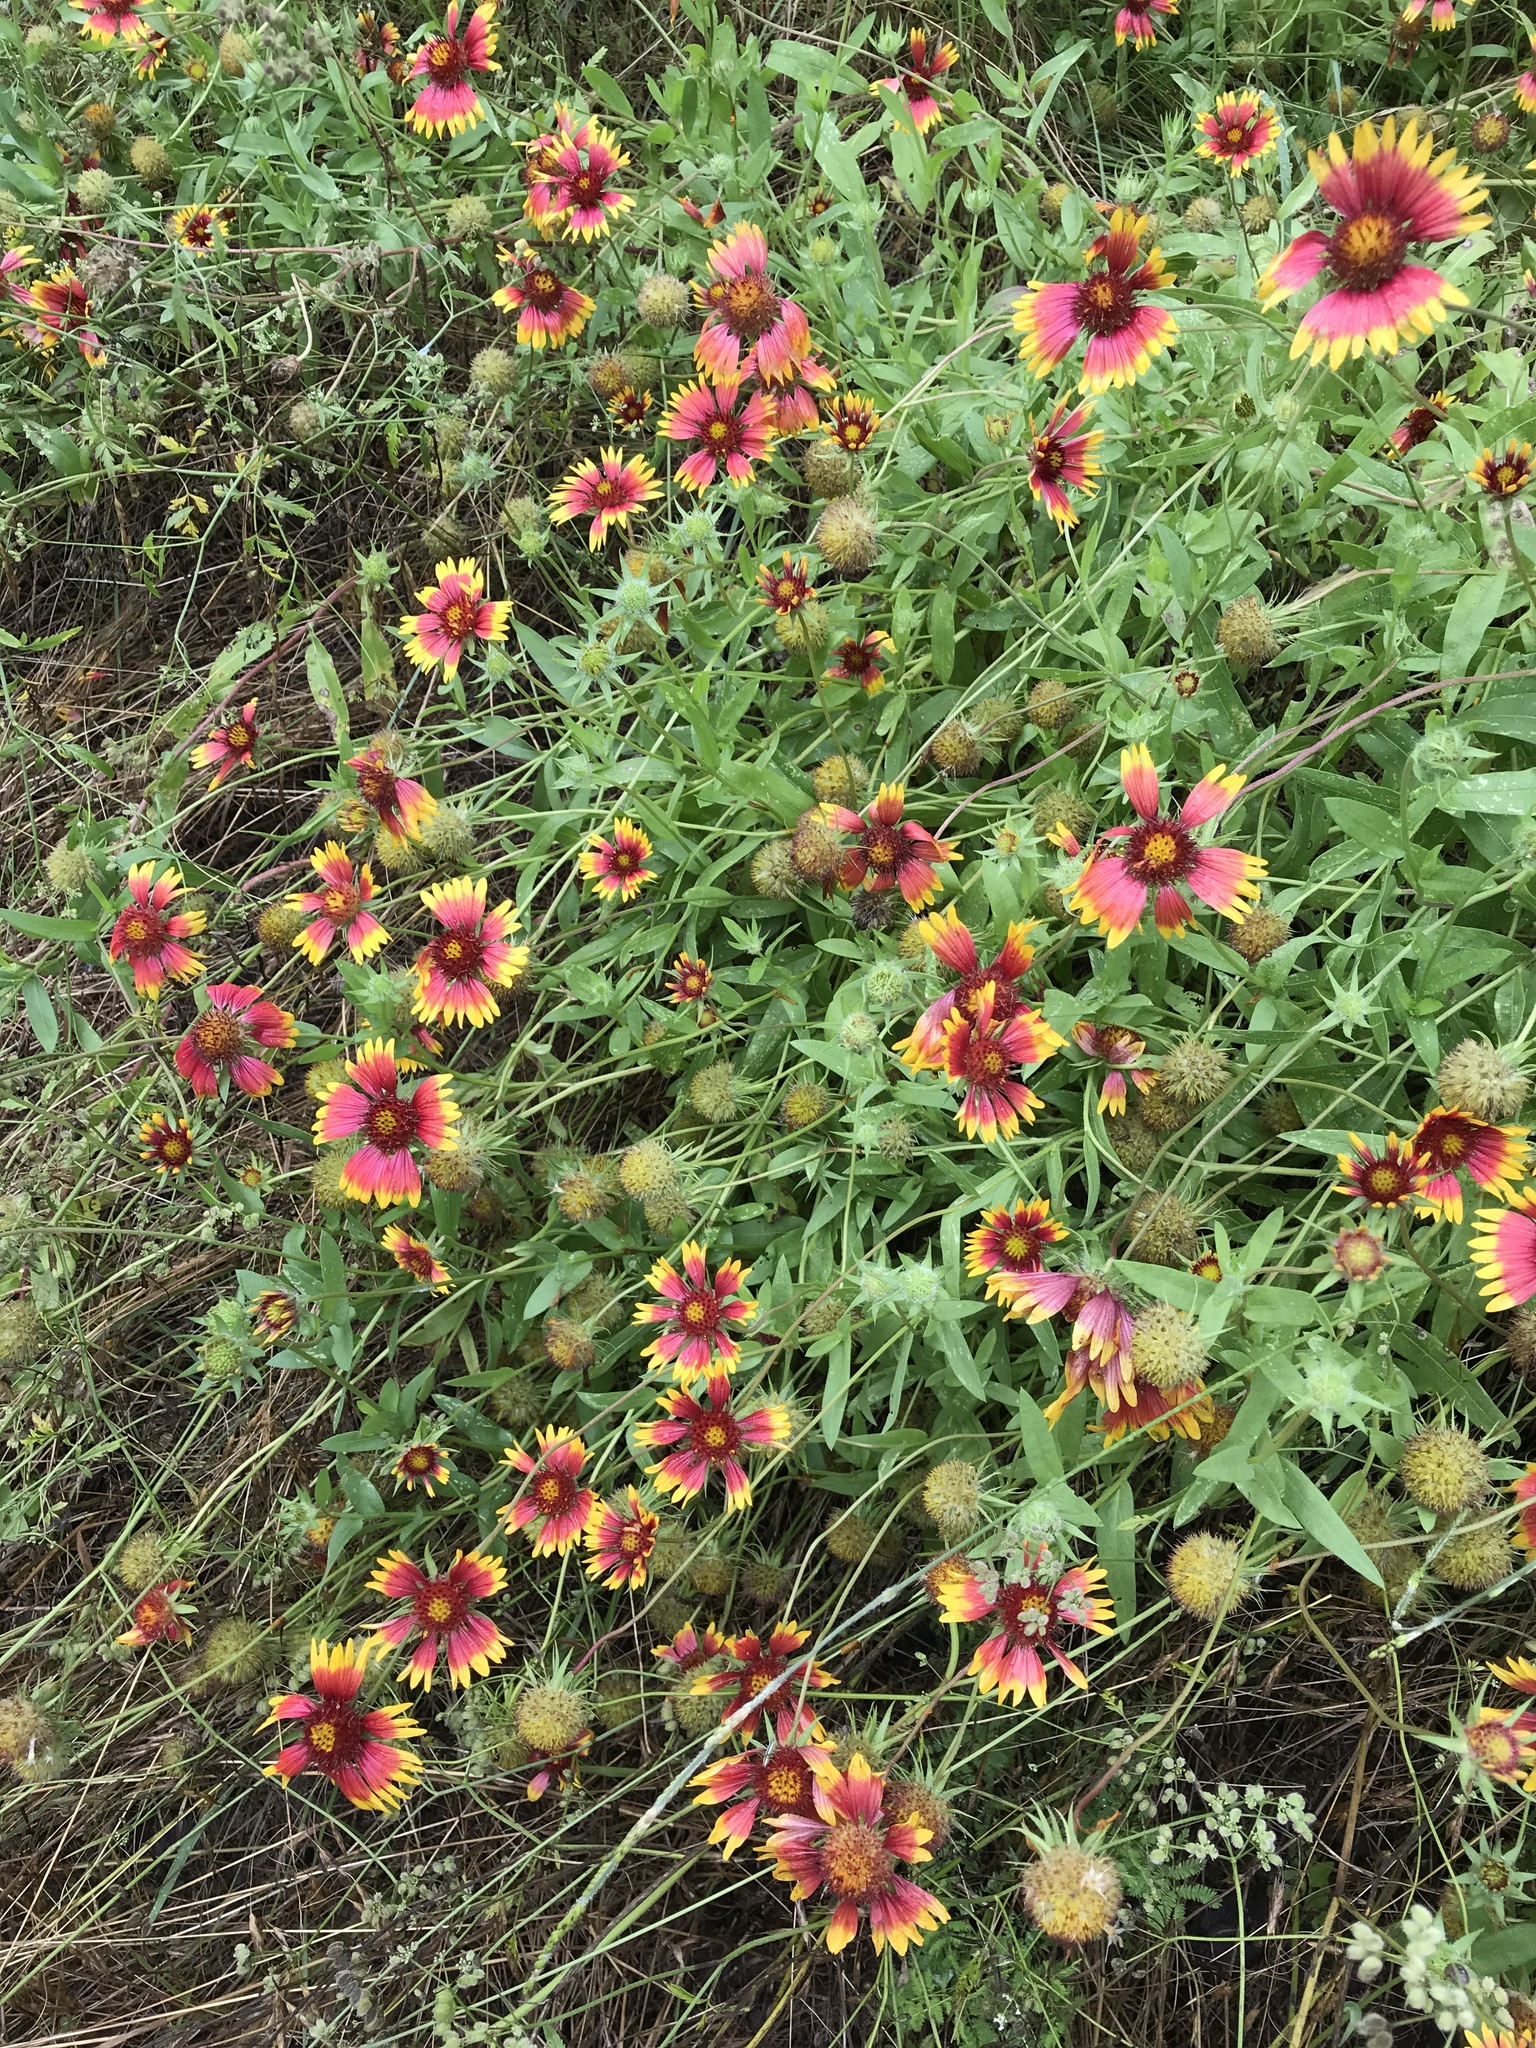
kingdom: Plantae
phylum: Tracheophyta
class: Magnoliopsida
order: Asterales
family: Asteraceae
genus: Gaillardia
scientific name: Gaillardia pulchella
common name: Firewheel
